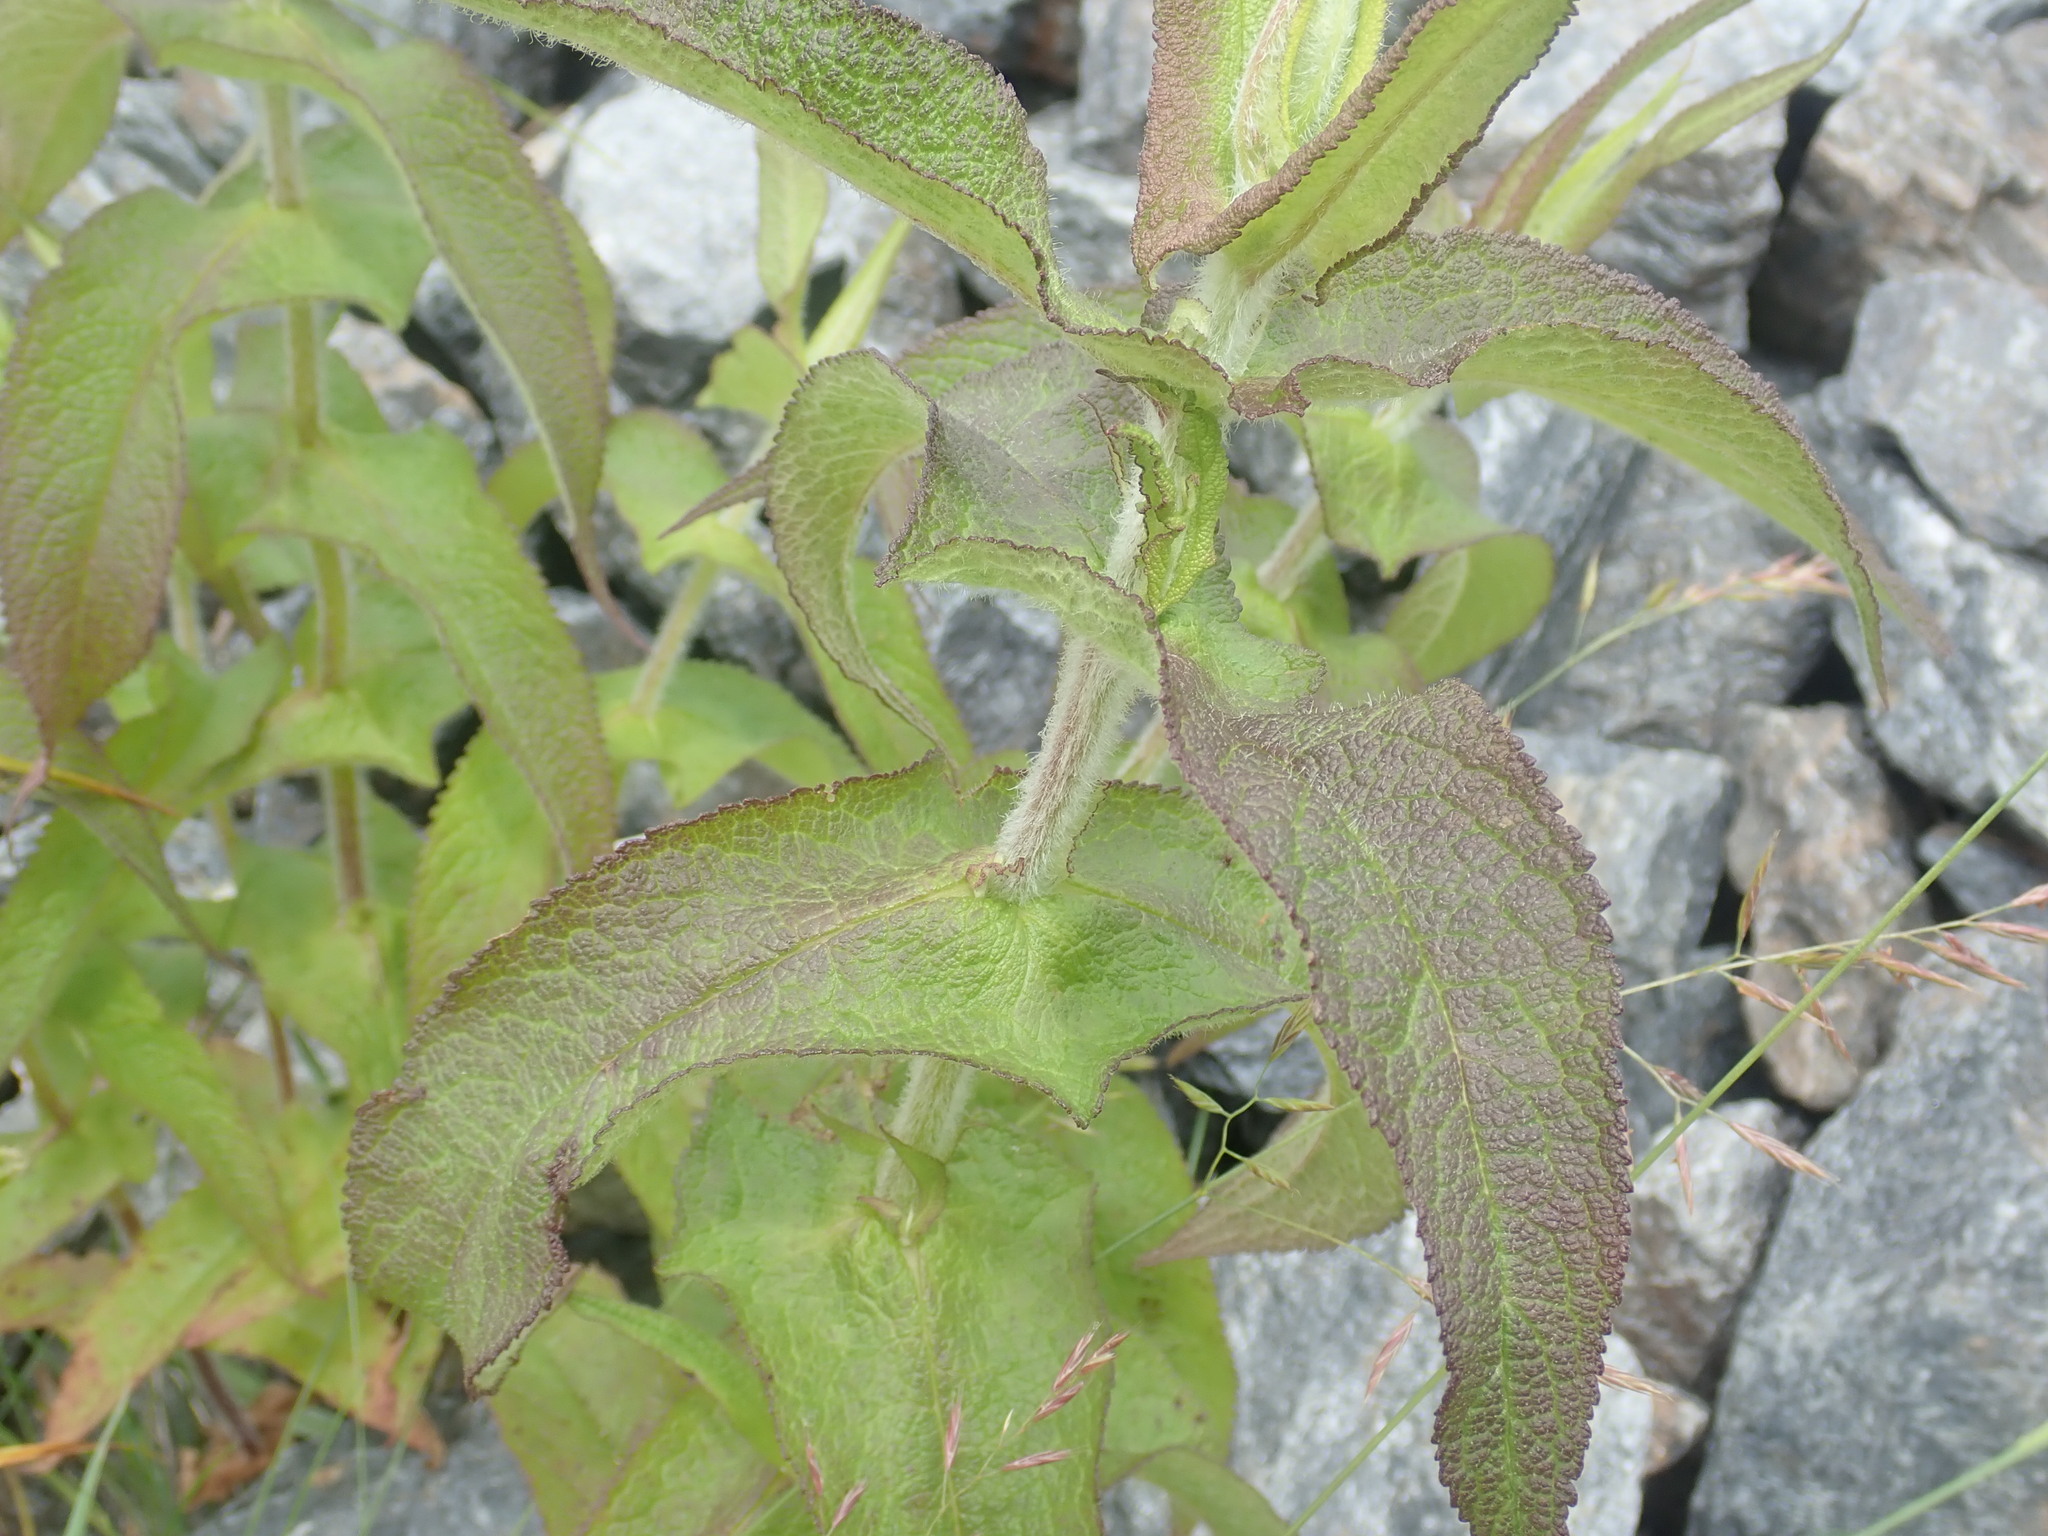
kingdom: Plantae
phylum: Tracheophyta
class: Magnoliopsida
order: Asterales
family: Asteraceae
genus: Eupatorium
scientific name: Eupatorium perfoliatum
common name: Boneset
